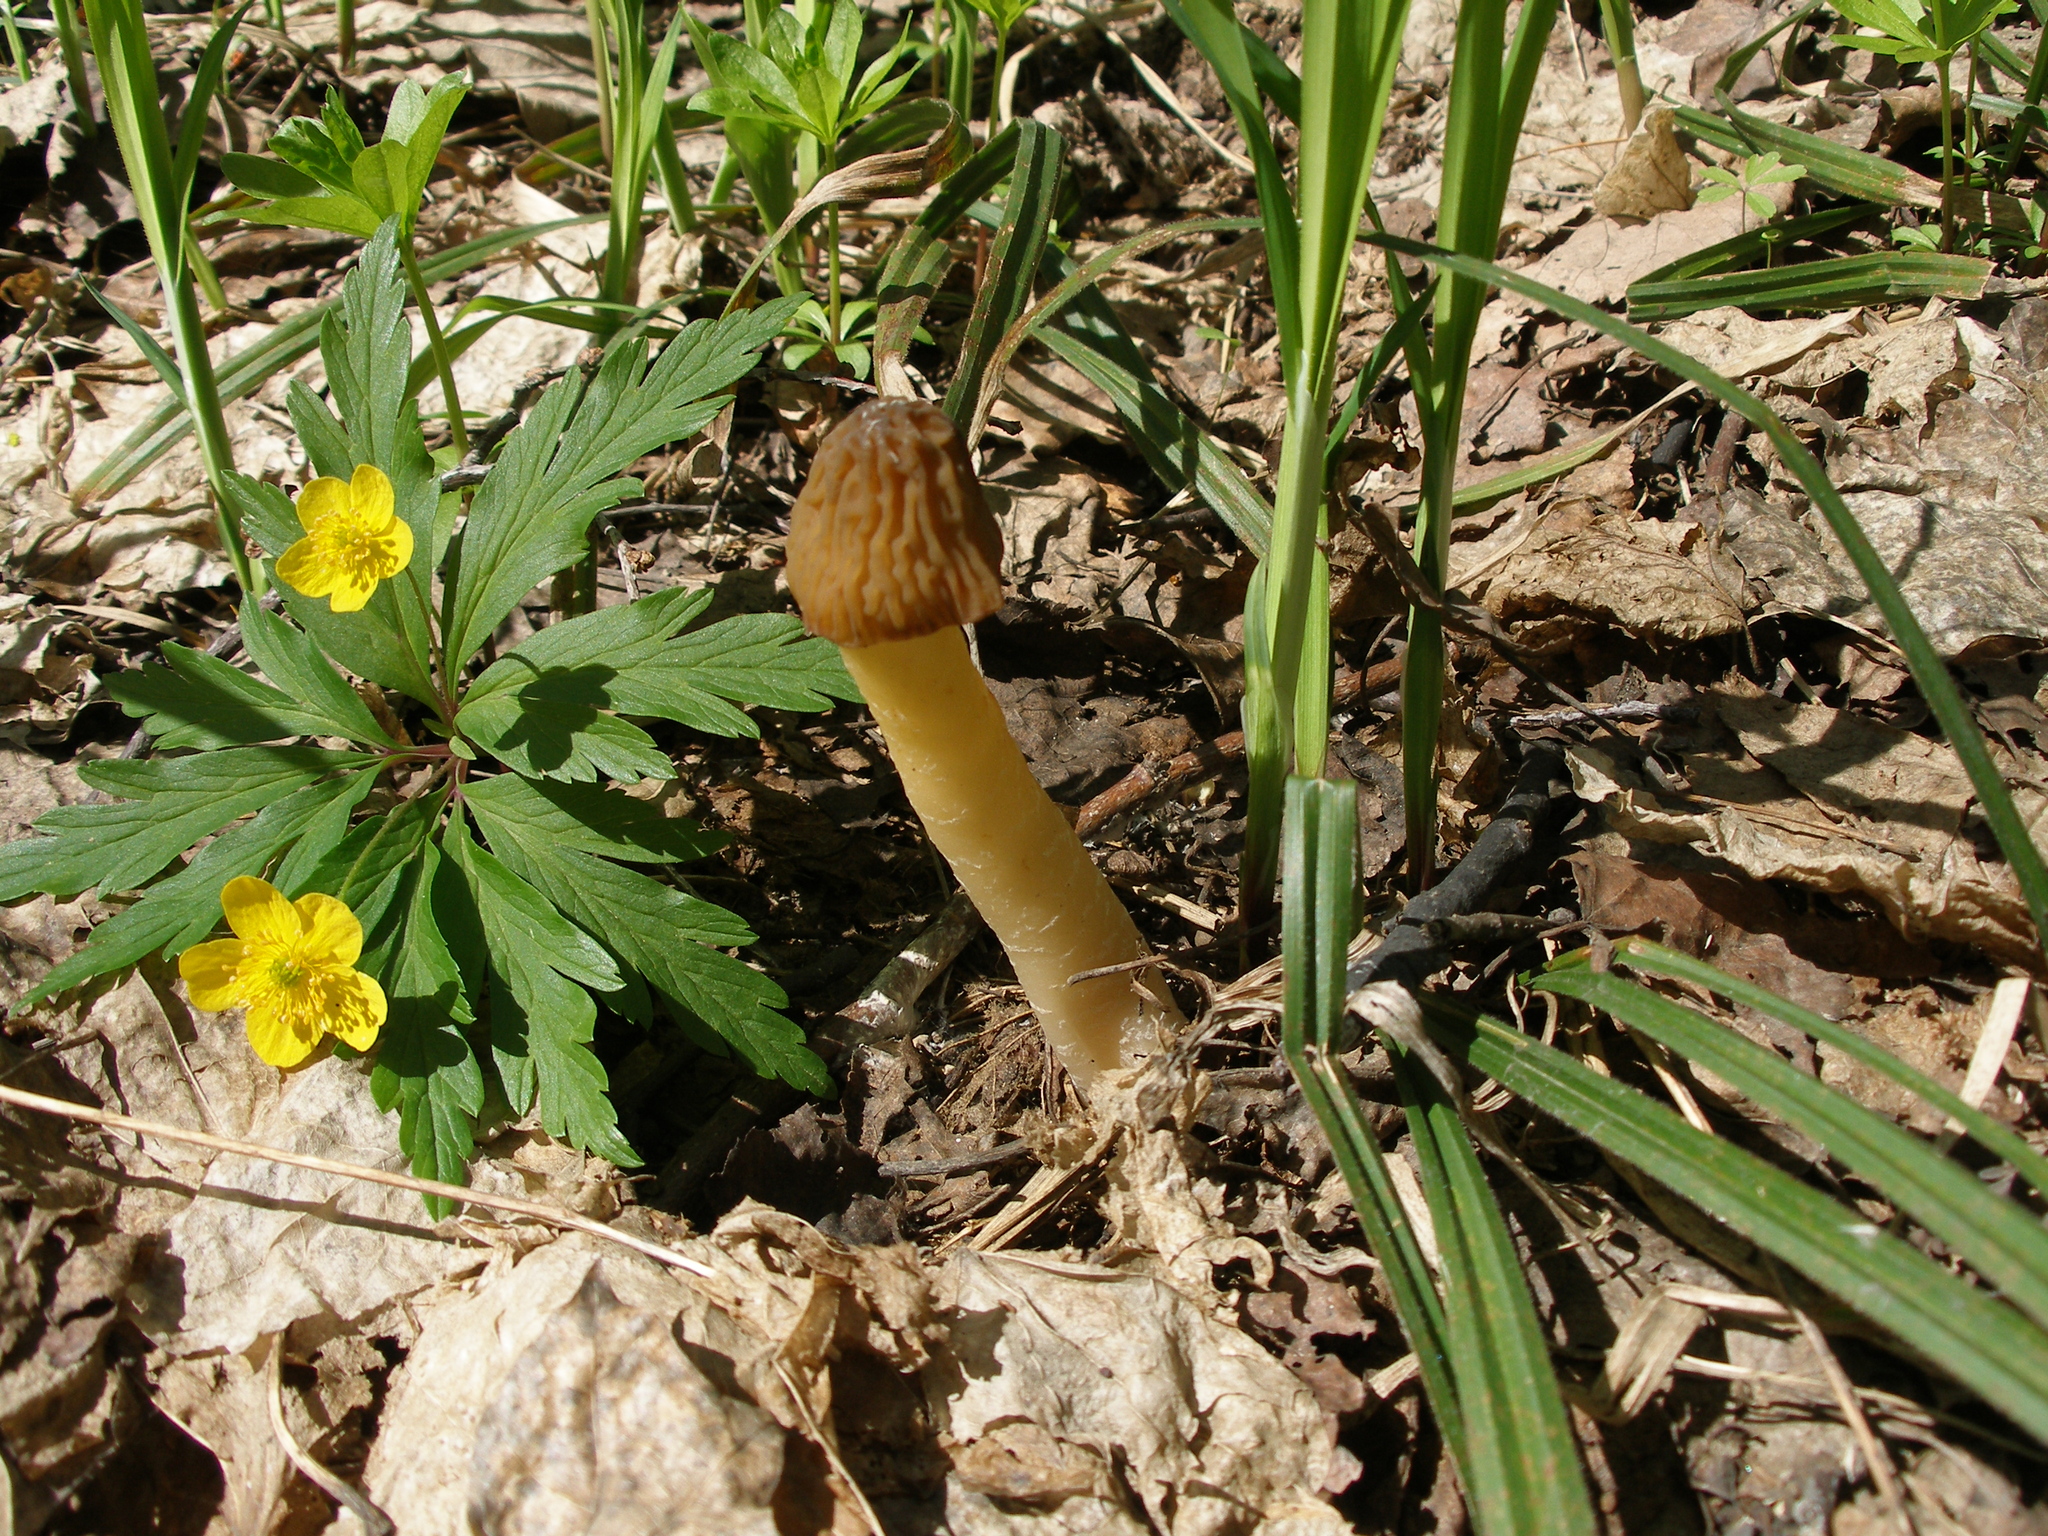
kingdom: Fungi
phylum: Ascomycota
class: Pezizomycetes
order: Pezizales
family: Morchellaceae
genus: Verpa
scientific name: Verpa bohemica
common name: Wrinkled thimble morel
